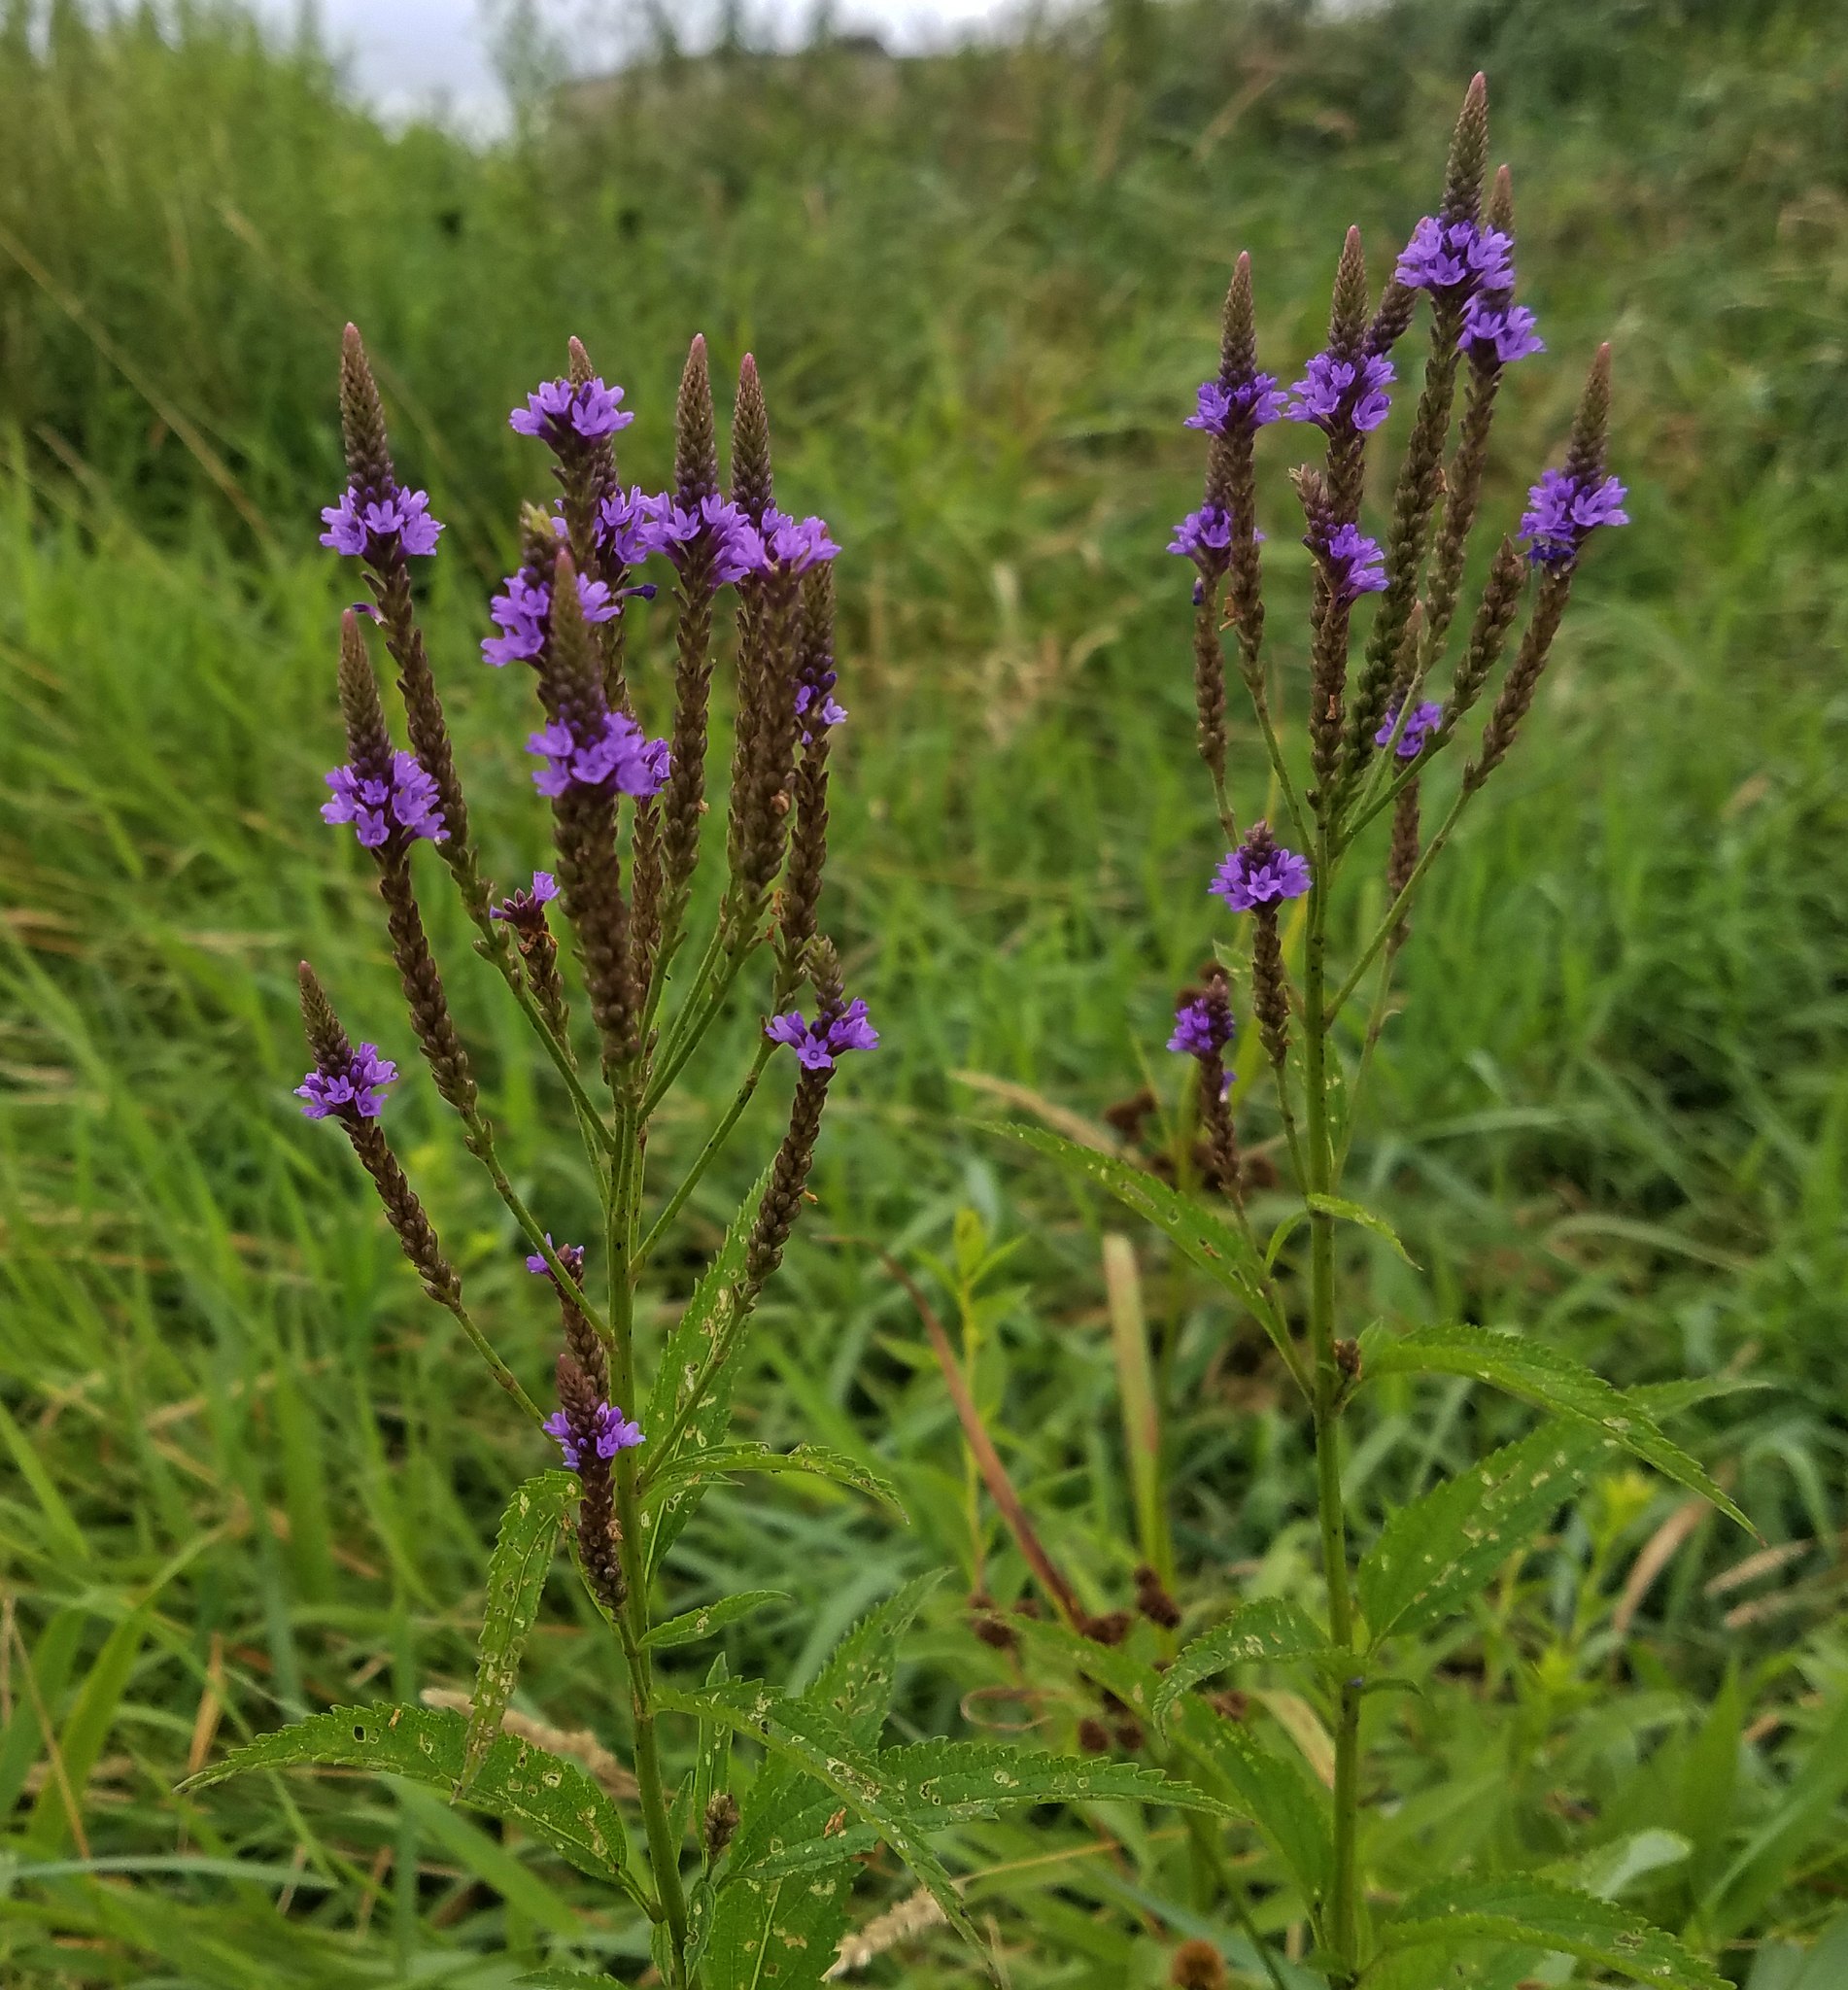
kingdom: Plantae
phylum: Tracheophyta
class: Magnoliopsida
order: Lamiales
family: Verbenaceae
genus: Verbena
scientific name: Verbena hastata
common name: American blue vervain
